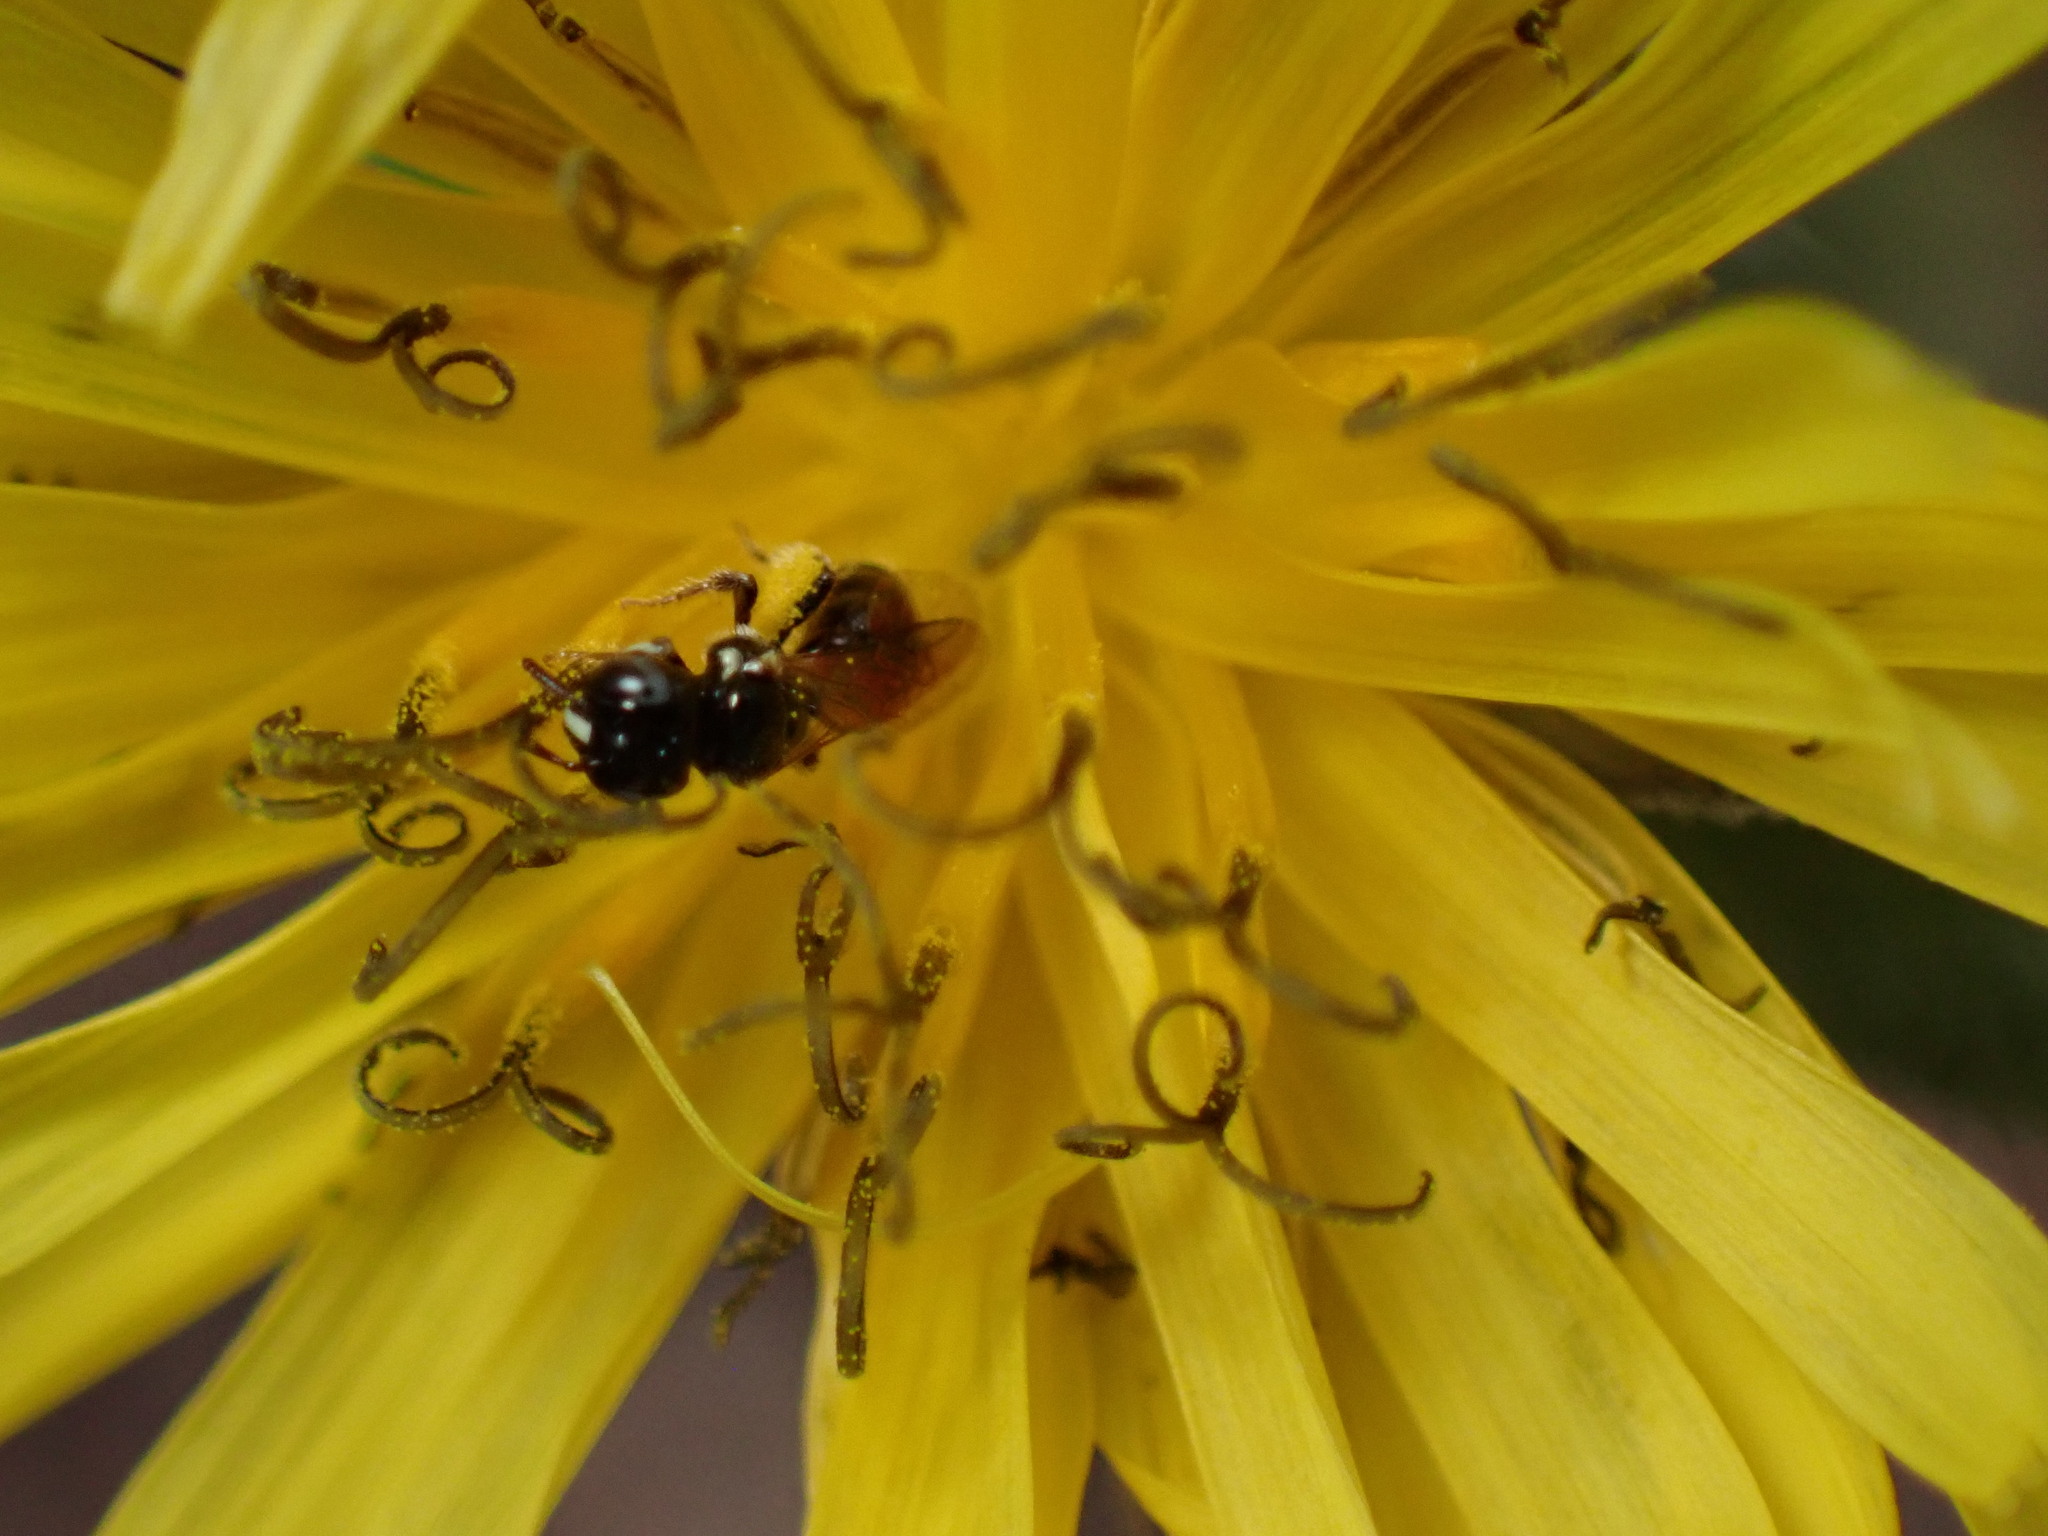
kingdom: Animalia
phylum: Arthropoda
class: Insecta
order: Hymenoptera
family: Apidae
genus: Ceratina
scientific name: Ceratina arizonensis
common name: Arizona small carpenter bee
